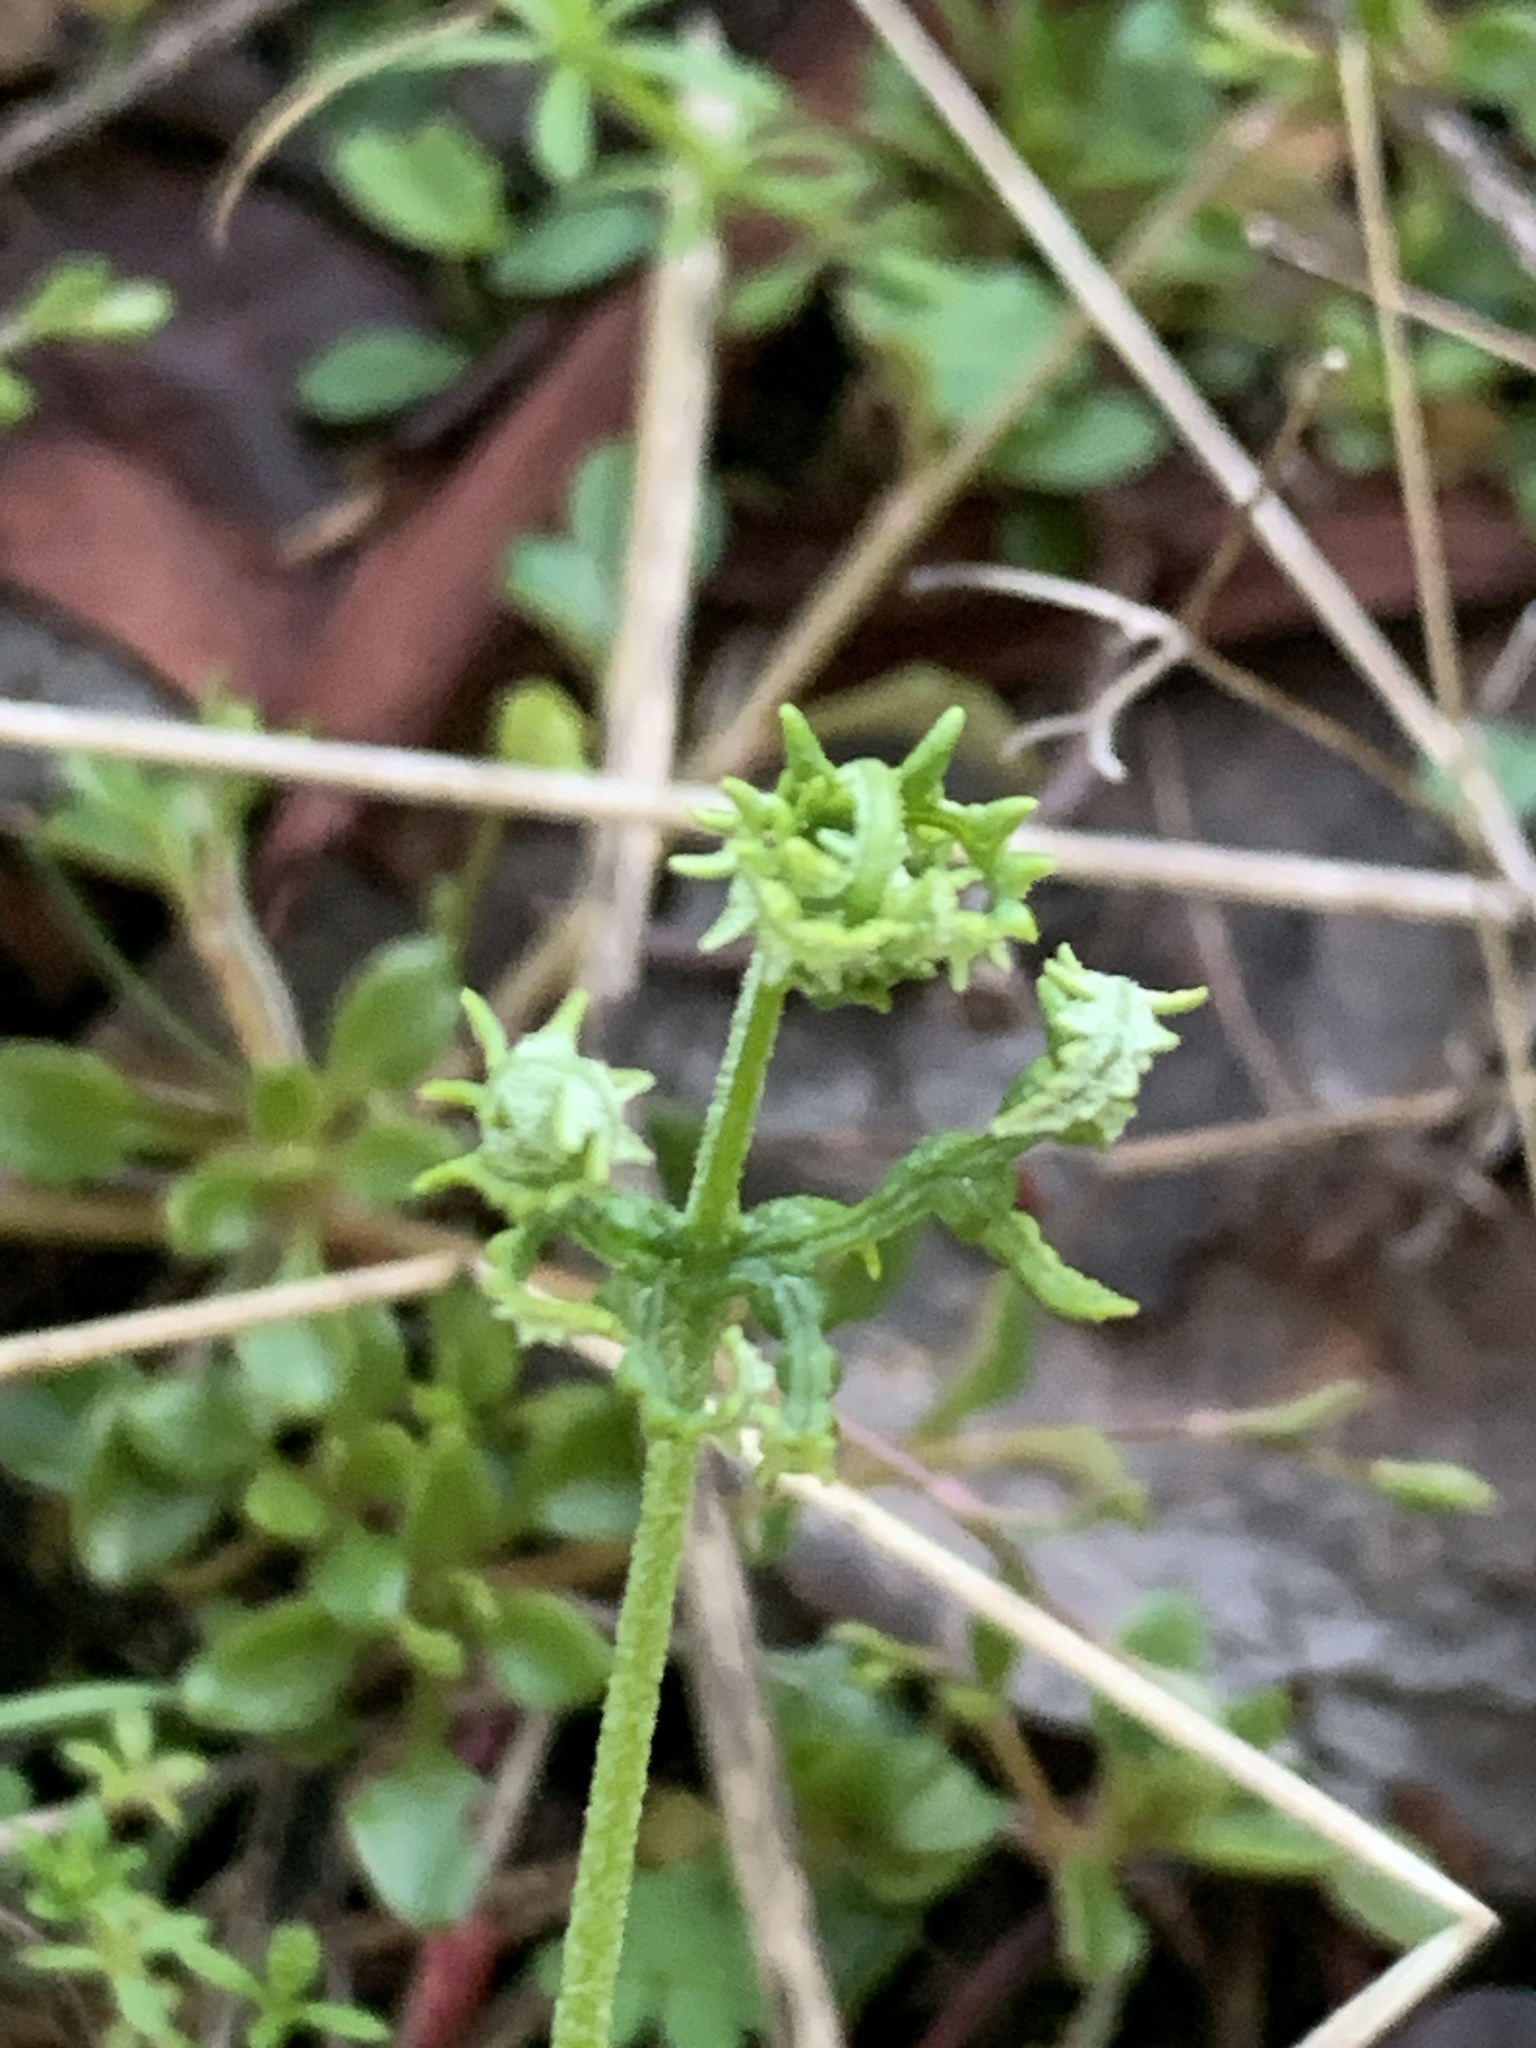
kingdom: Plantae
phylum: Tracheophyta
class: Polypodiopsida
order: Polypodiales
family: Pteridaceae
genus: Pentagramma
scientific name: Pentagramma triangularis
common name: Gold fern
